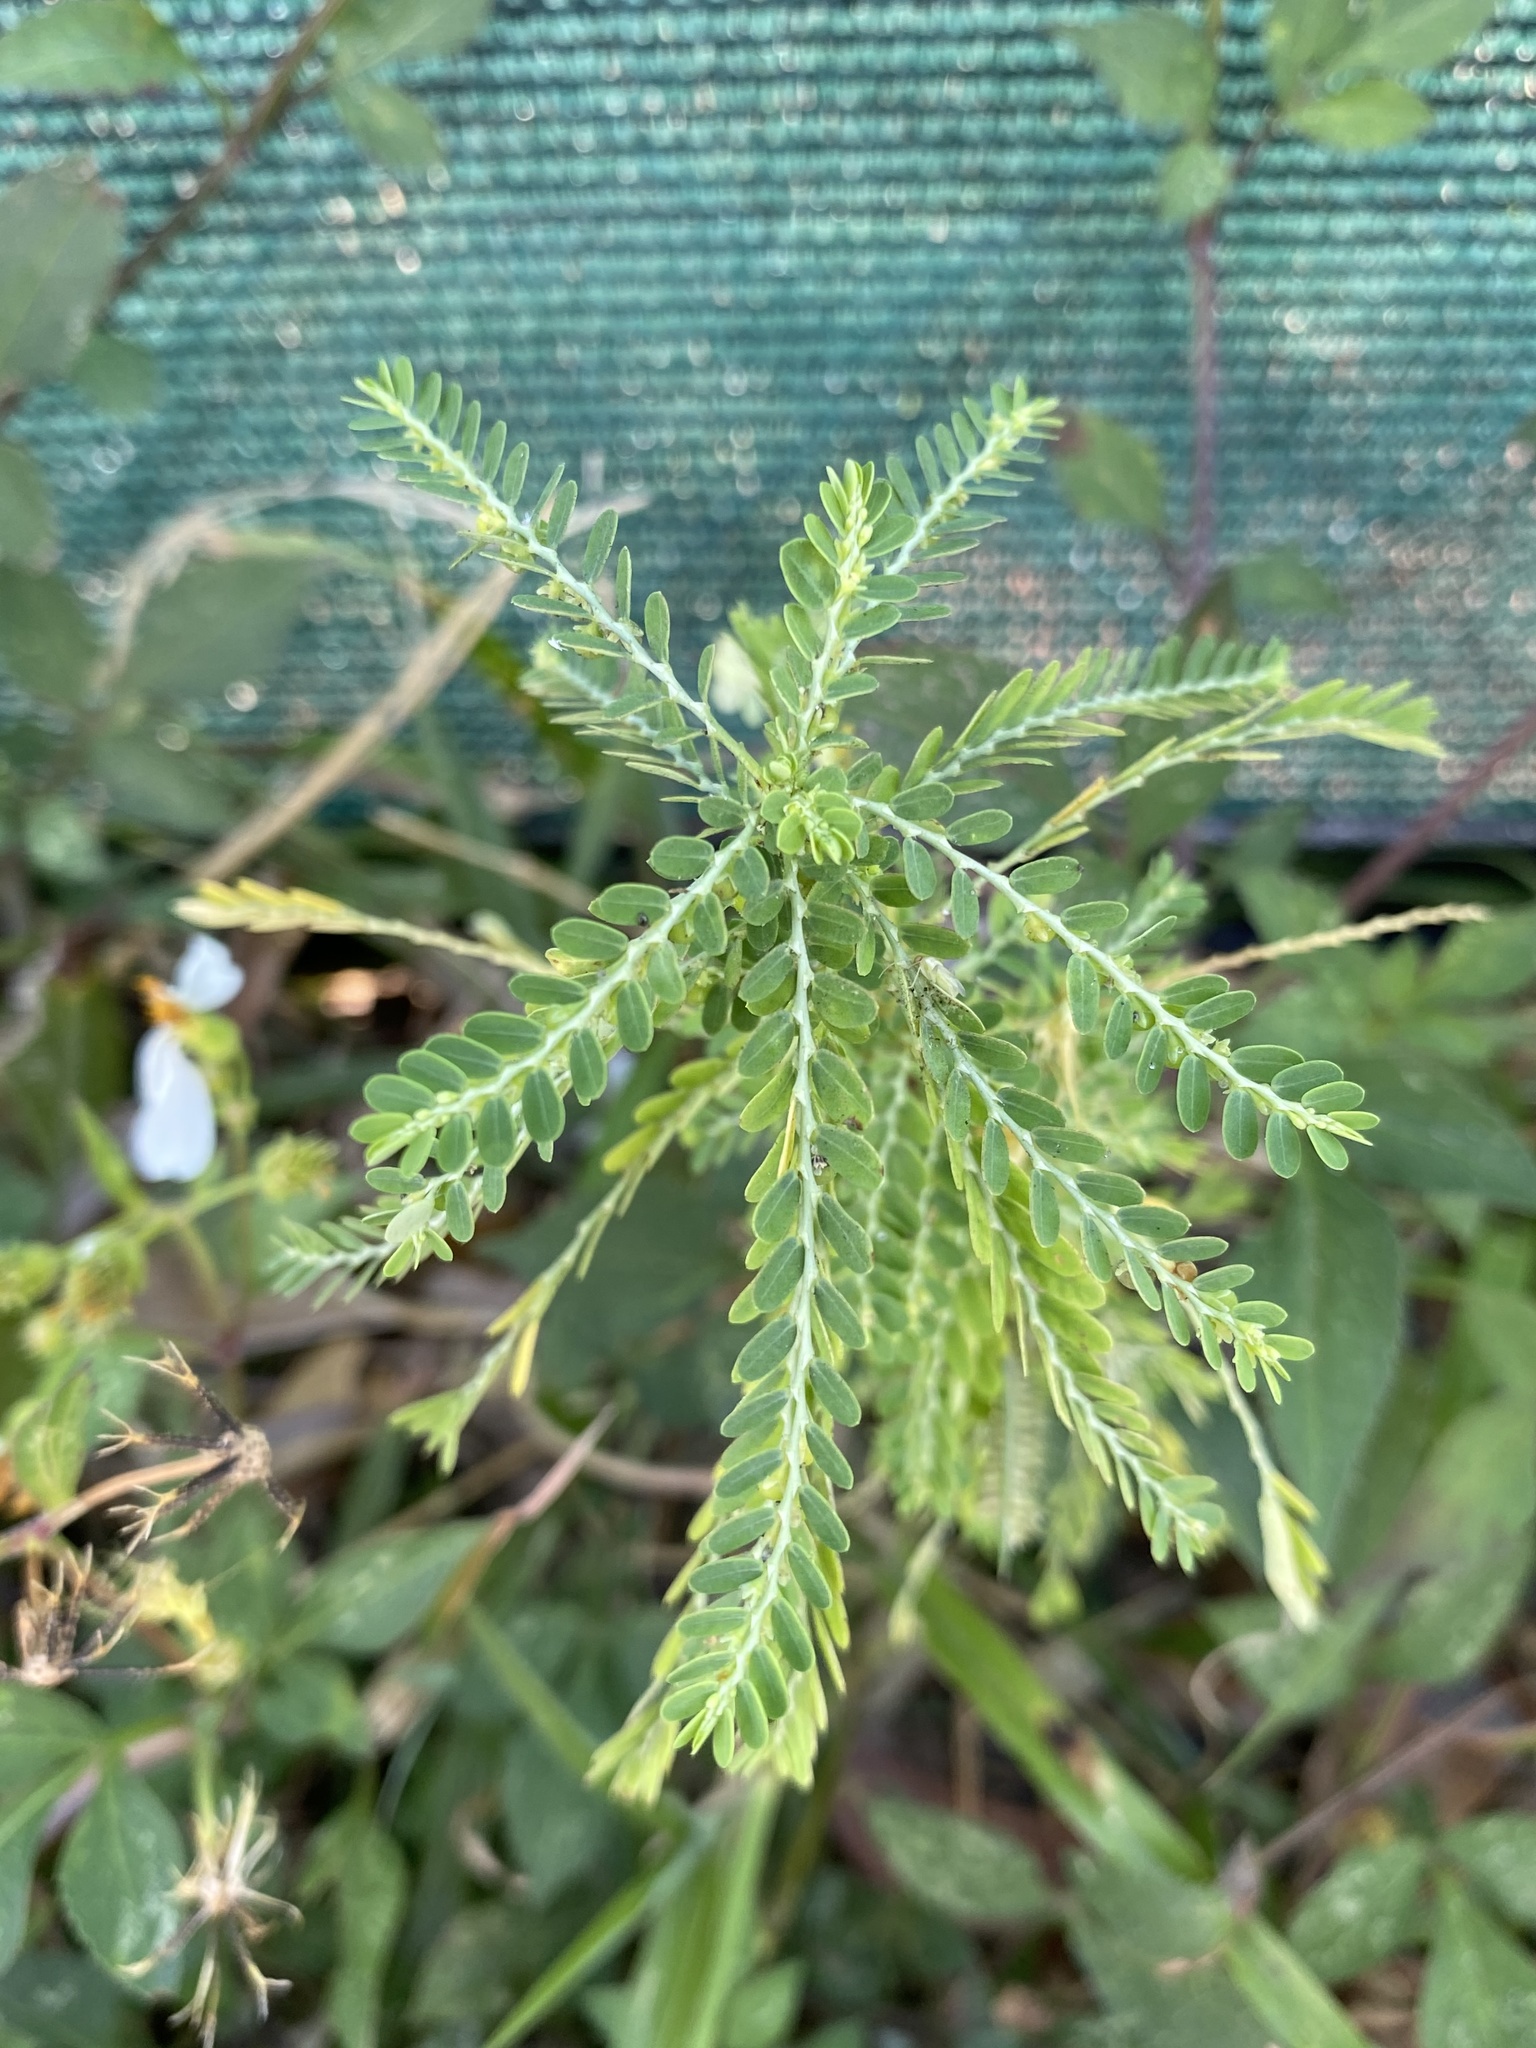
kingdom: Plantae
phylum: Tracheophyta
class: Magnoliopsida
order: Malpighiales
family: Phyllanthaceae
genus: Phyllanthus
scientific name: Phyllanthus amarus
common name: Carry me seed
